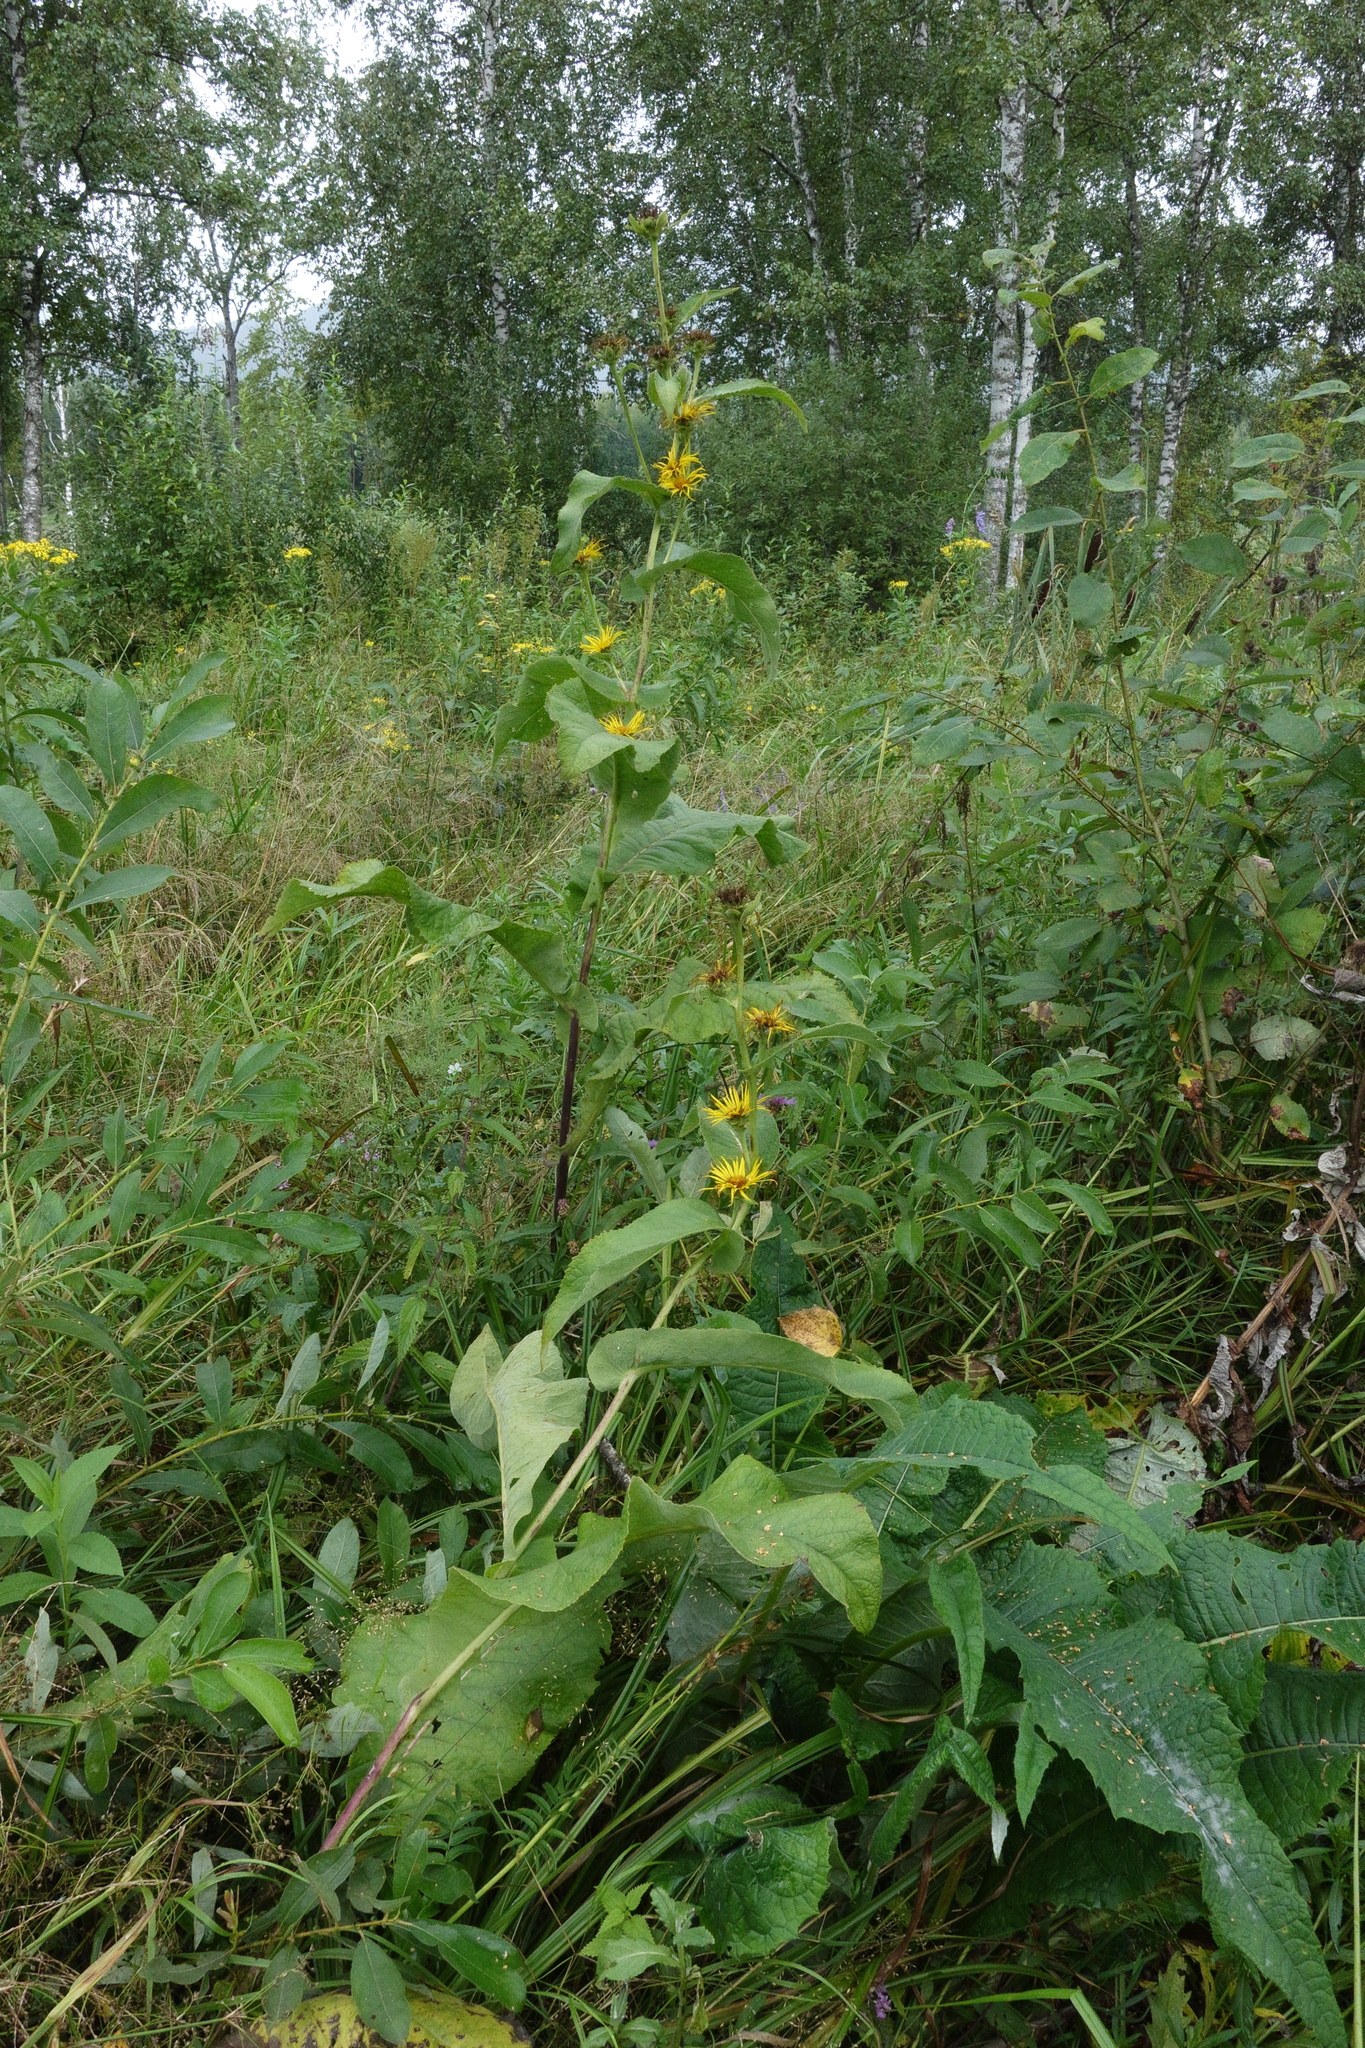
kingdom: Plantae
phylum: Tracheophyta
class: Magnoliopsida
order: Asterales
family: Asteraceae
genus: Inula
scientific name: Inula helenium
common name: Elecampane
